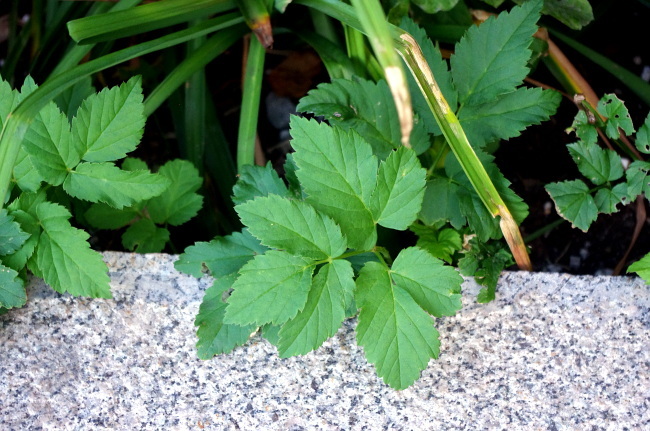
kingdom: Plantae
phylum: Tracheophyta
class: Magnoliopsida
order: Apiales
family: Apiaceae
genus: Aegopodium
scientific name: Aegopodium podagraria
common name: Ground-elder
